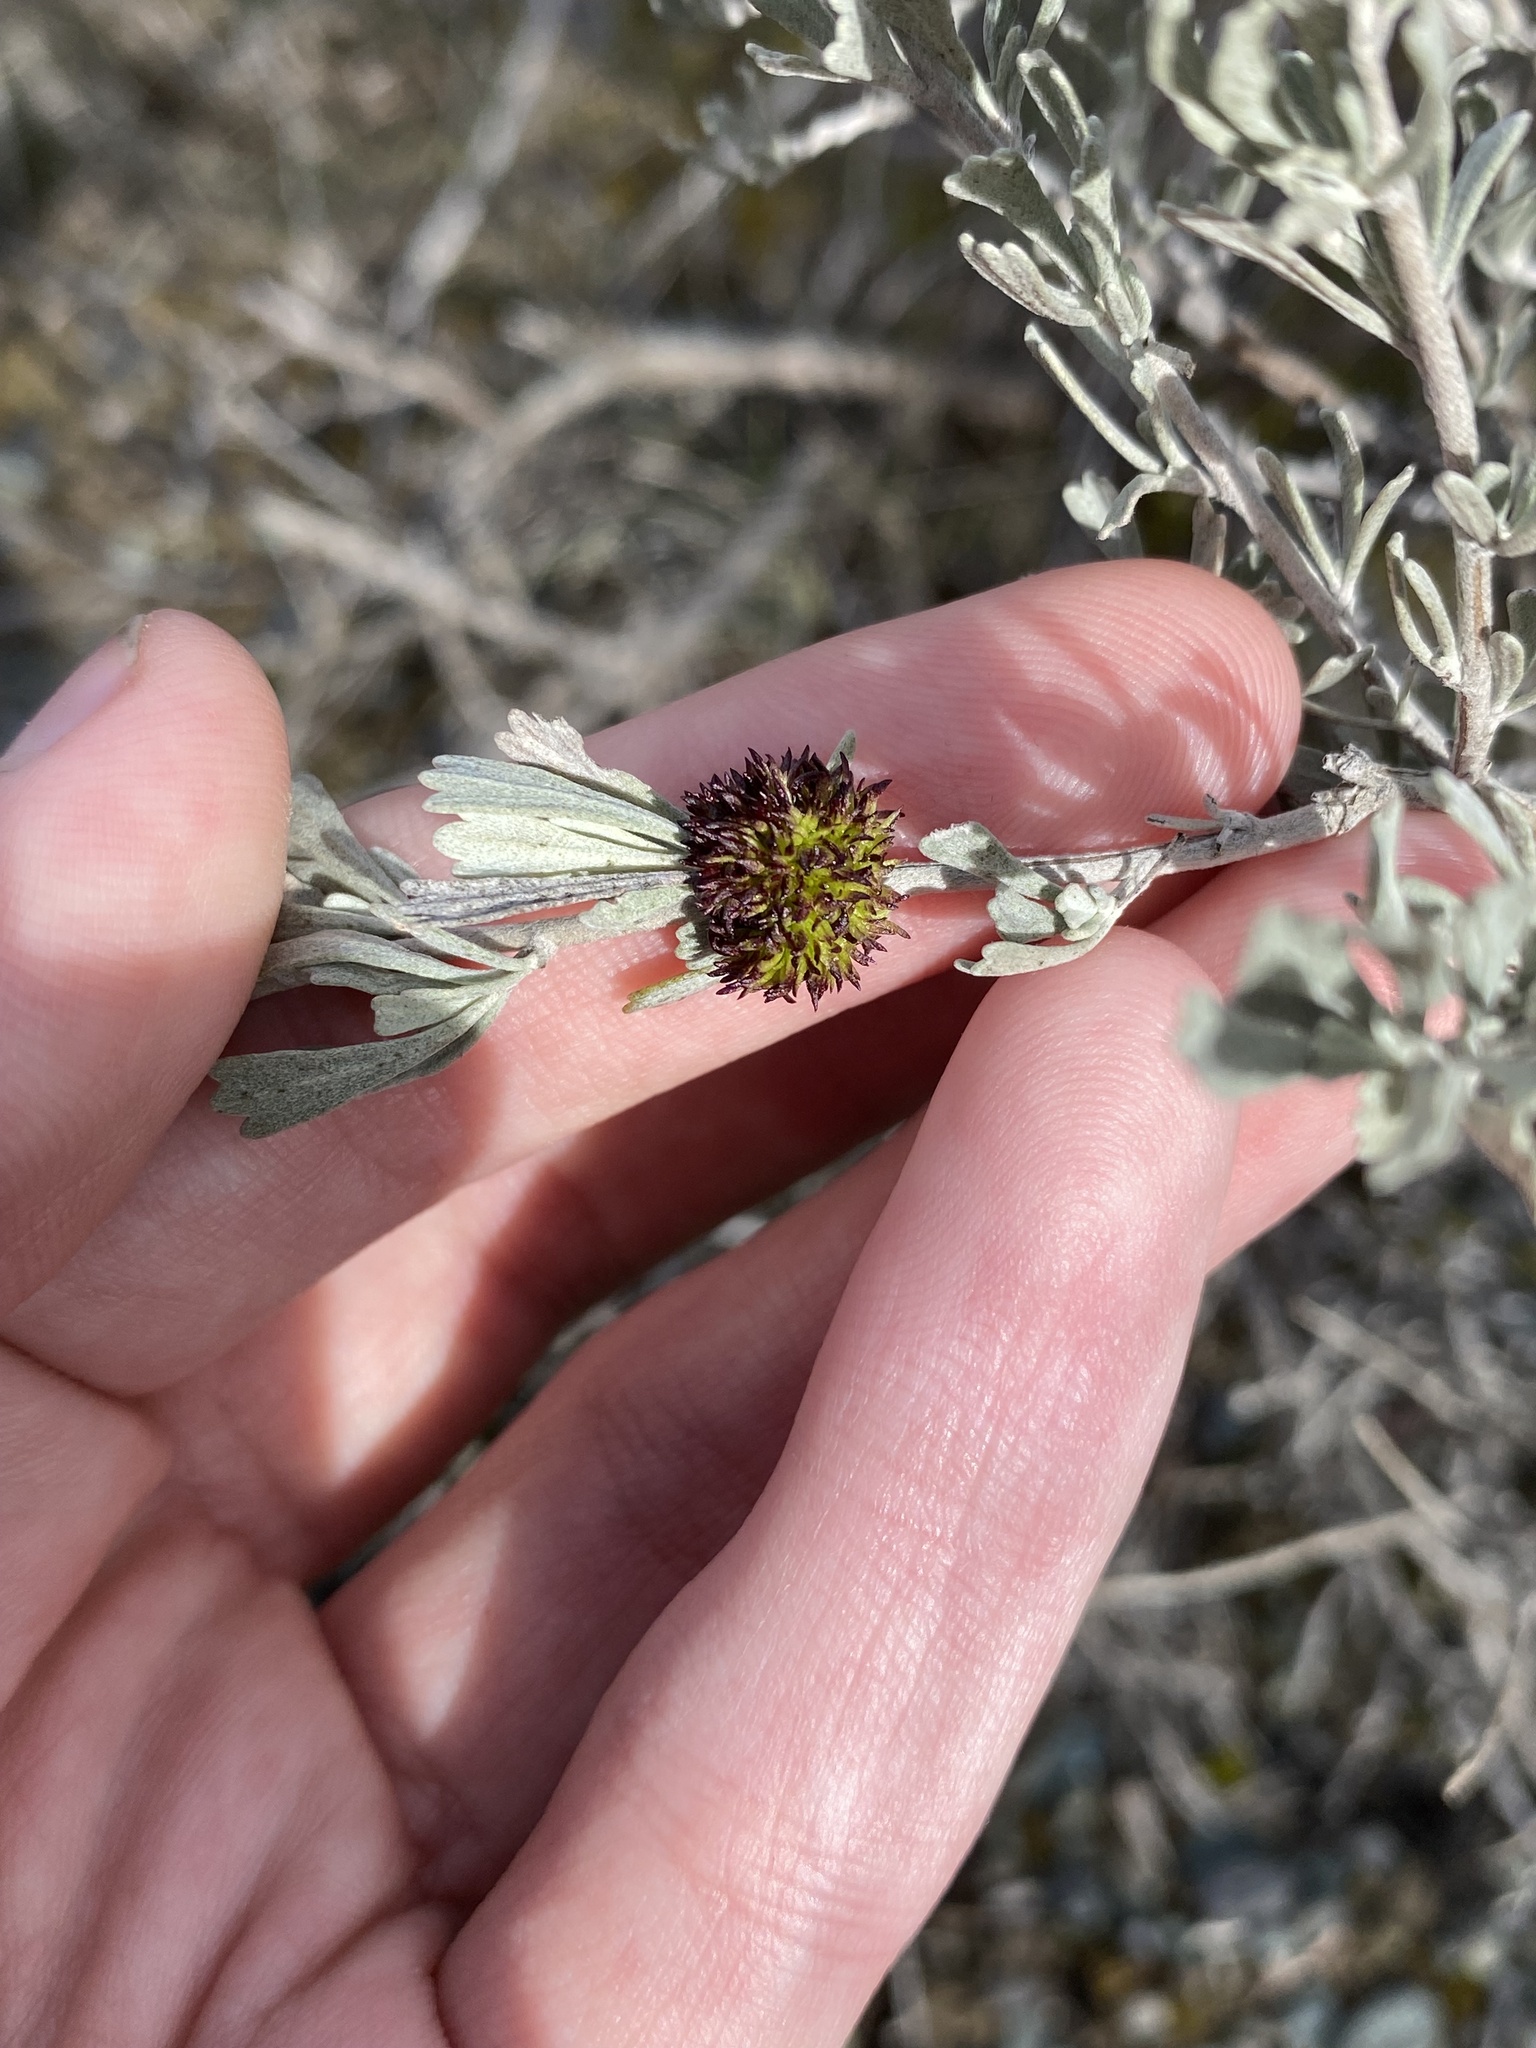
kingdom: Animalia
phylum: Arthropoda
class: Insecta
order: Diptera
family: Cecidomyiidae
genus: Rhopalomyia
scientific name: Rhopalomyia medusa
